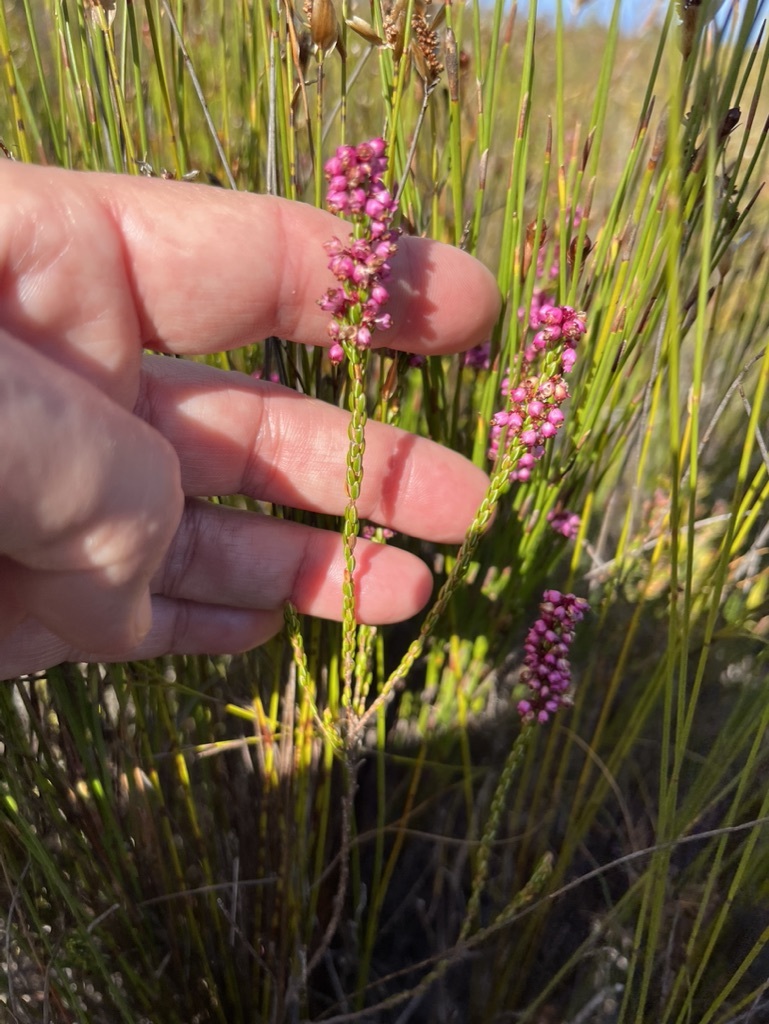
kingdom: Plantae
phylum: Tracheophyta
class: Magnoliopsida
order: Ericales
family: Ericaceae
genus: Erica
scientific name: Erica pulchella
